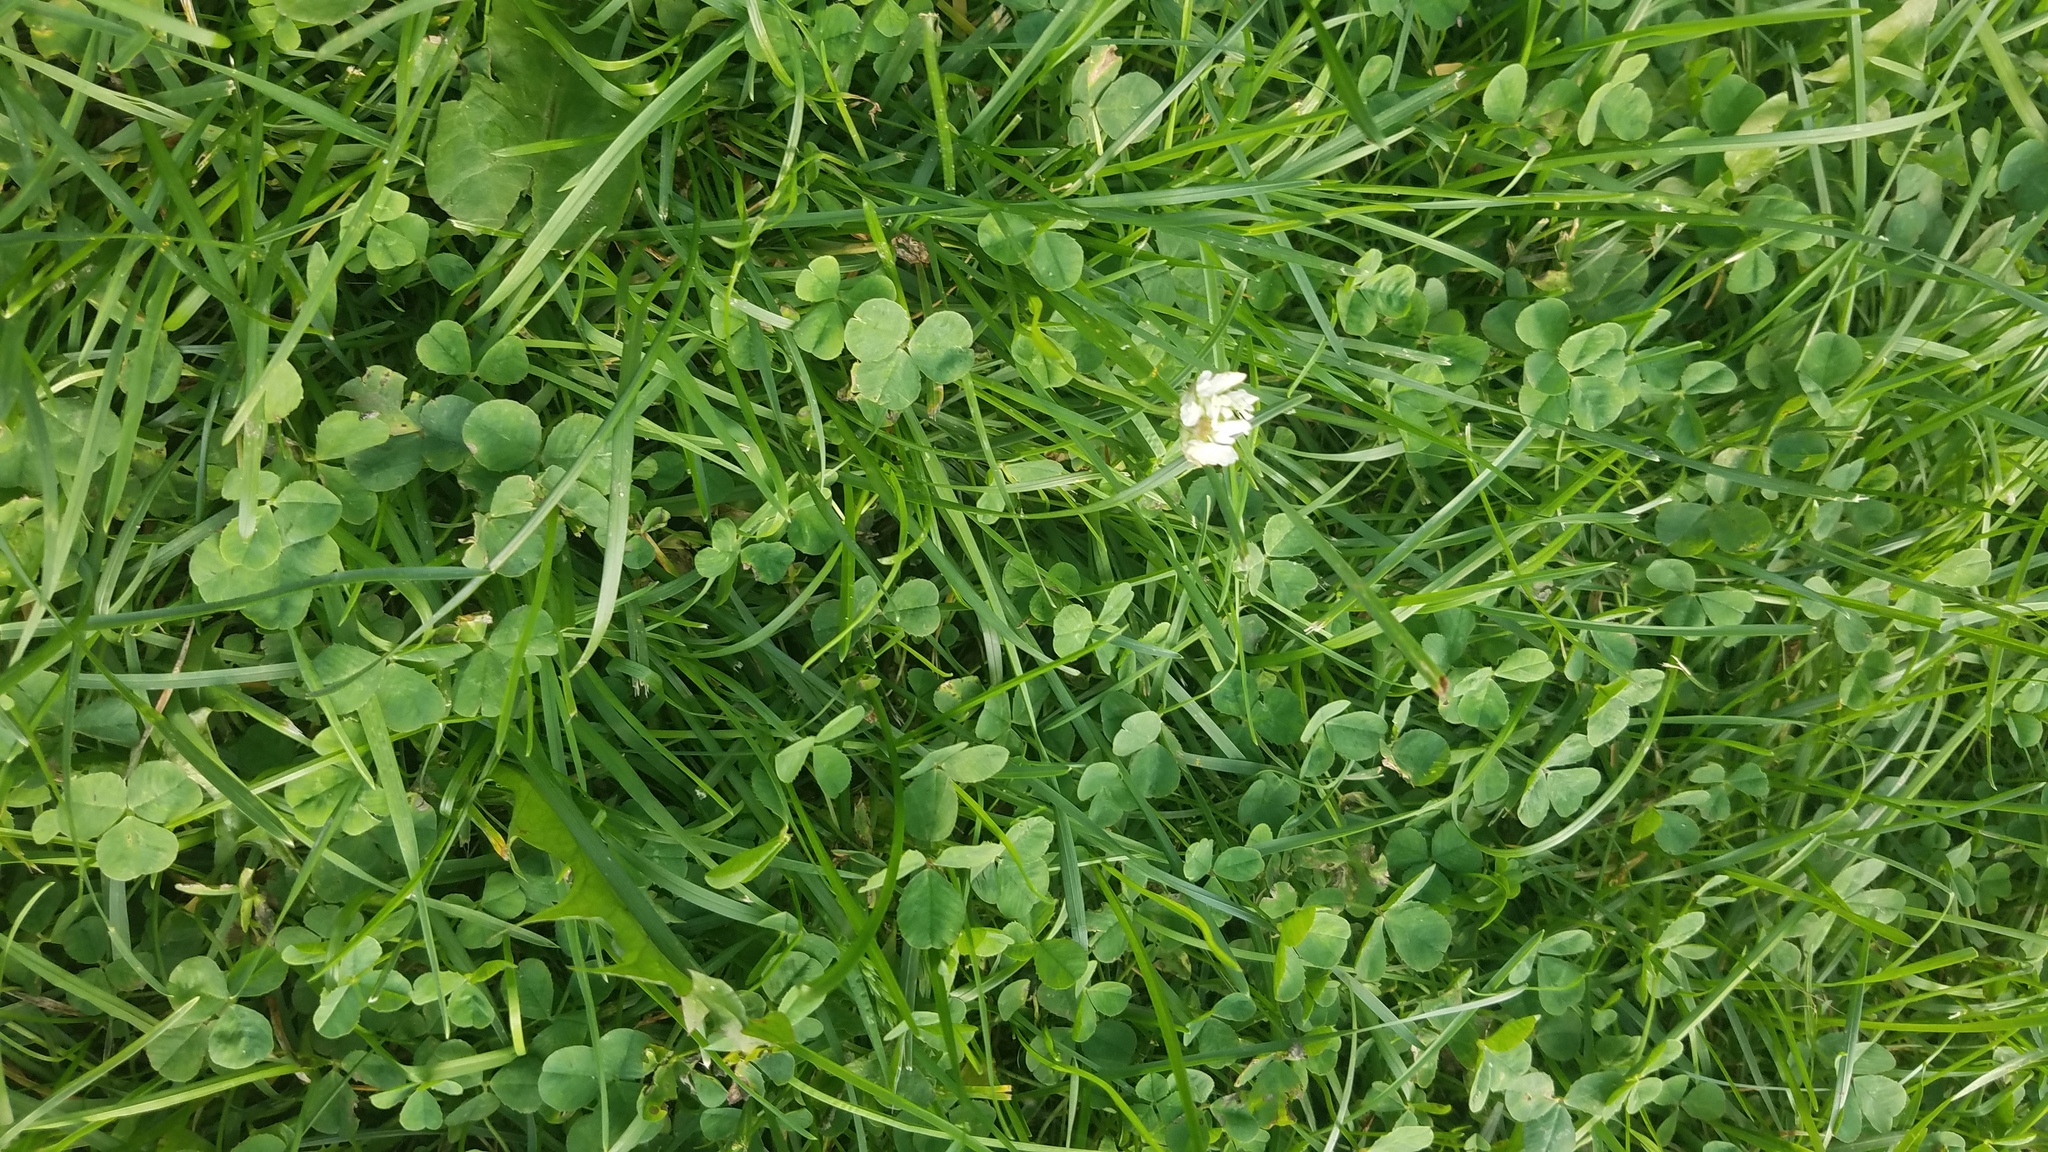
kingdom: Plantae
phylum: Tracheophyta
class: Magnoliopsida
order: Fabales
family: Fabaceae
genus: Trifolium
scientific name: Trifolium repens
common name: White clover
